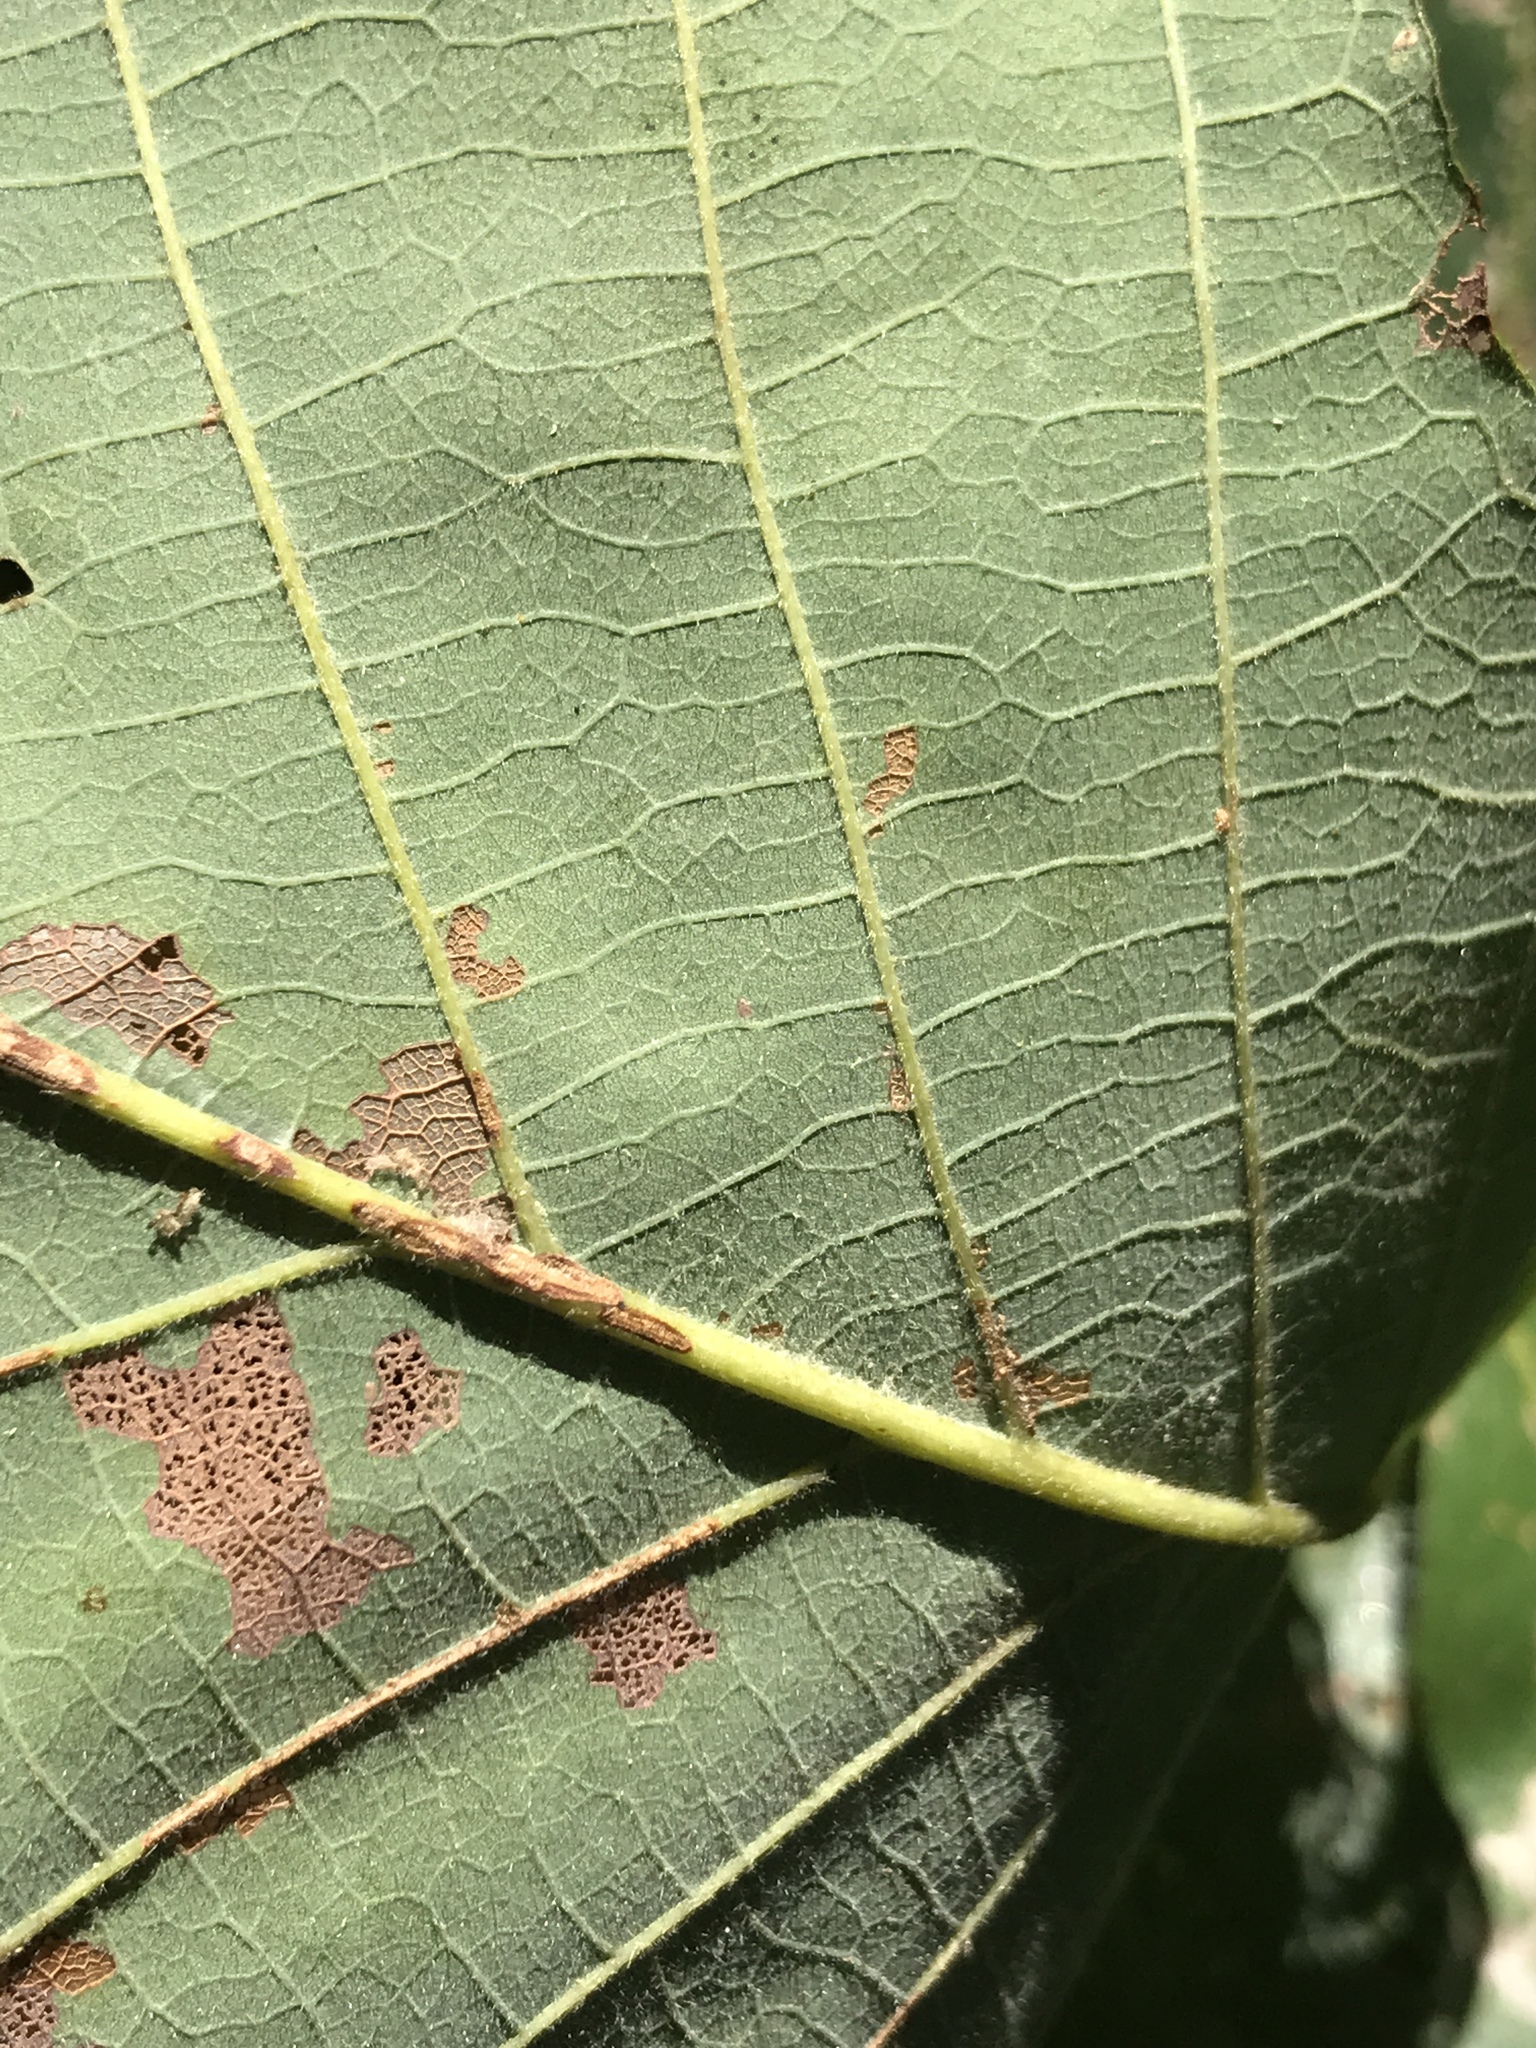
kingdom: Plantae
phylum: Tracheophyta
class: Magnoliopsida
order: Fagales
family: Fagaceae
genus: Quercus
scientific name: Quercus michauxii
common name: Swamp chestnut oak
